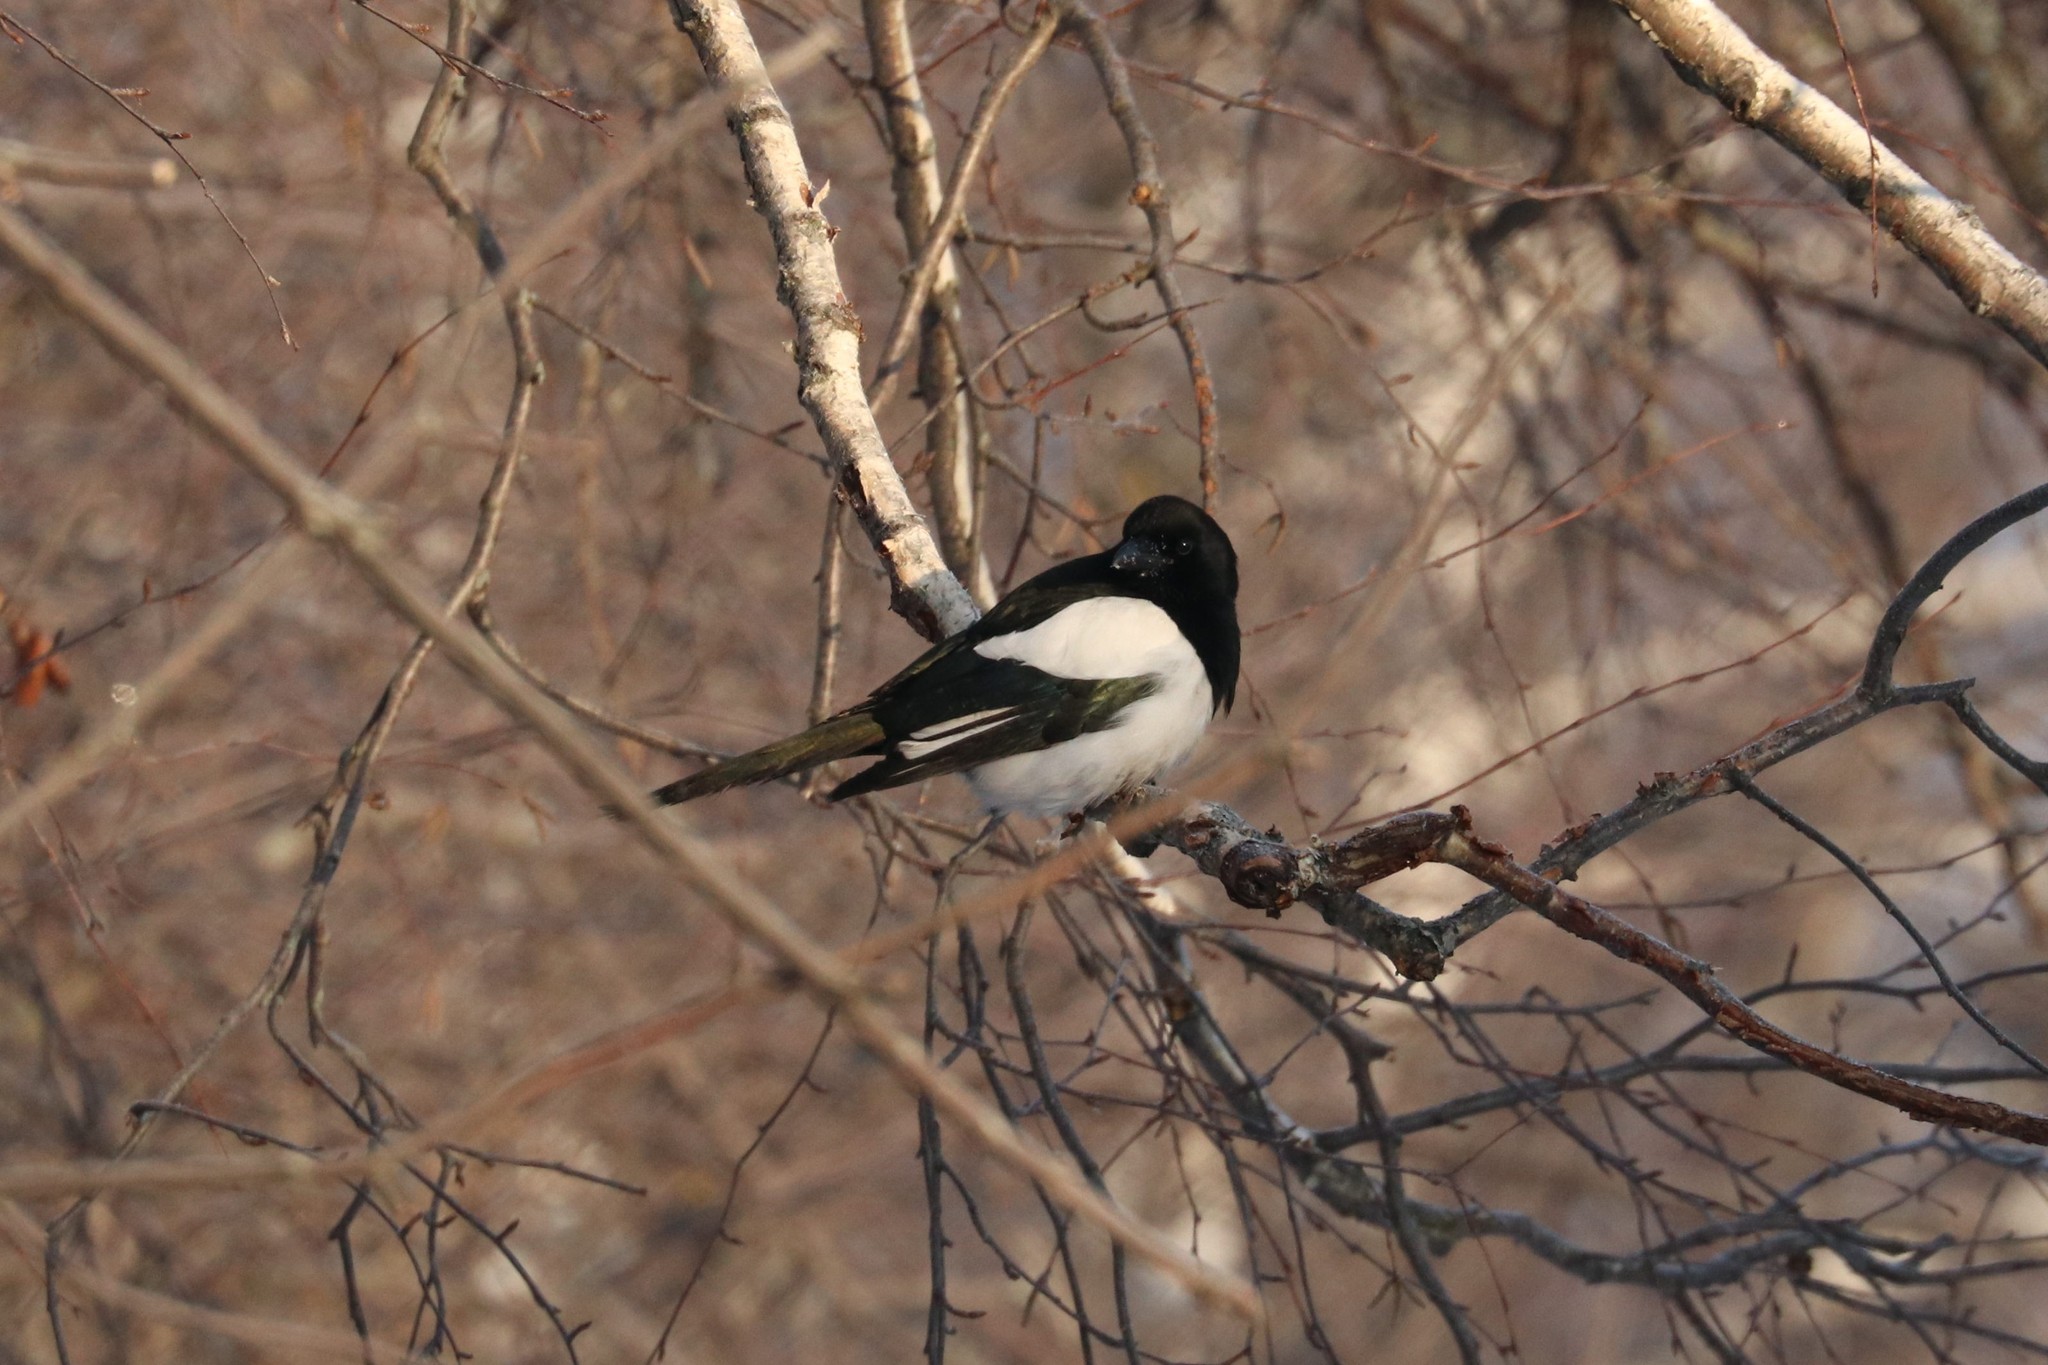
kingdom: Animalia
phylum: Chordata
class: Aves
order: Passeriformes
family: Corvidae
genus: Pica
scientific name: Pica pica
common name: Eurasian magpie
